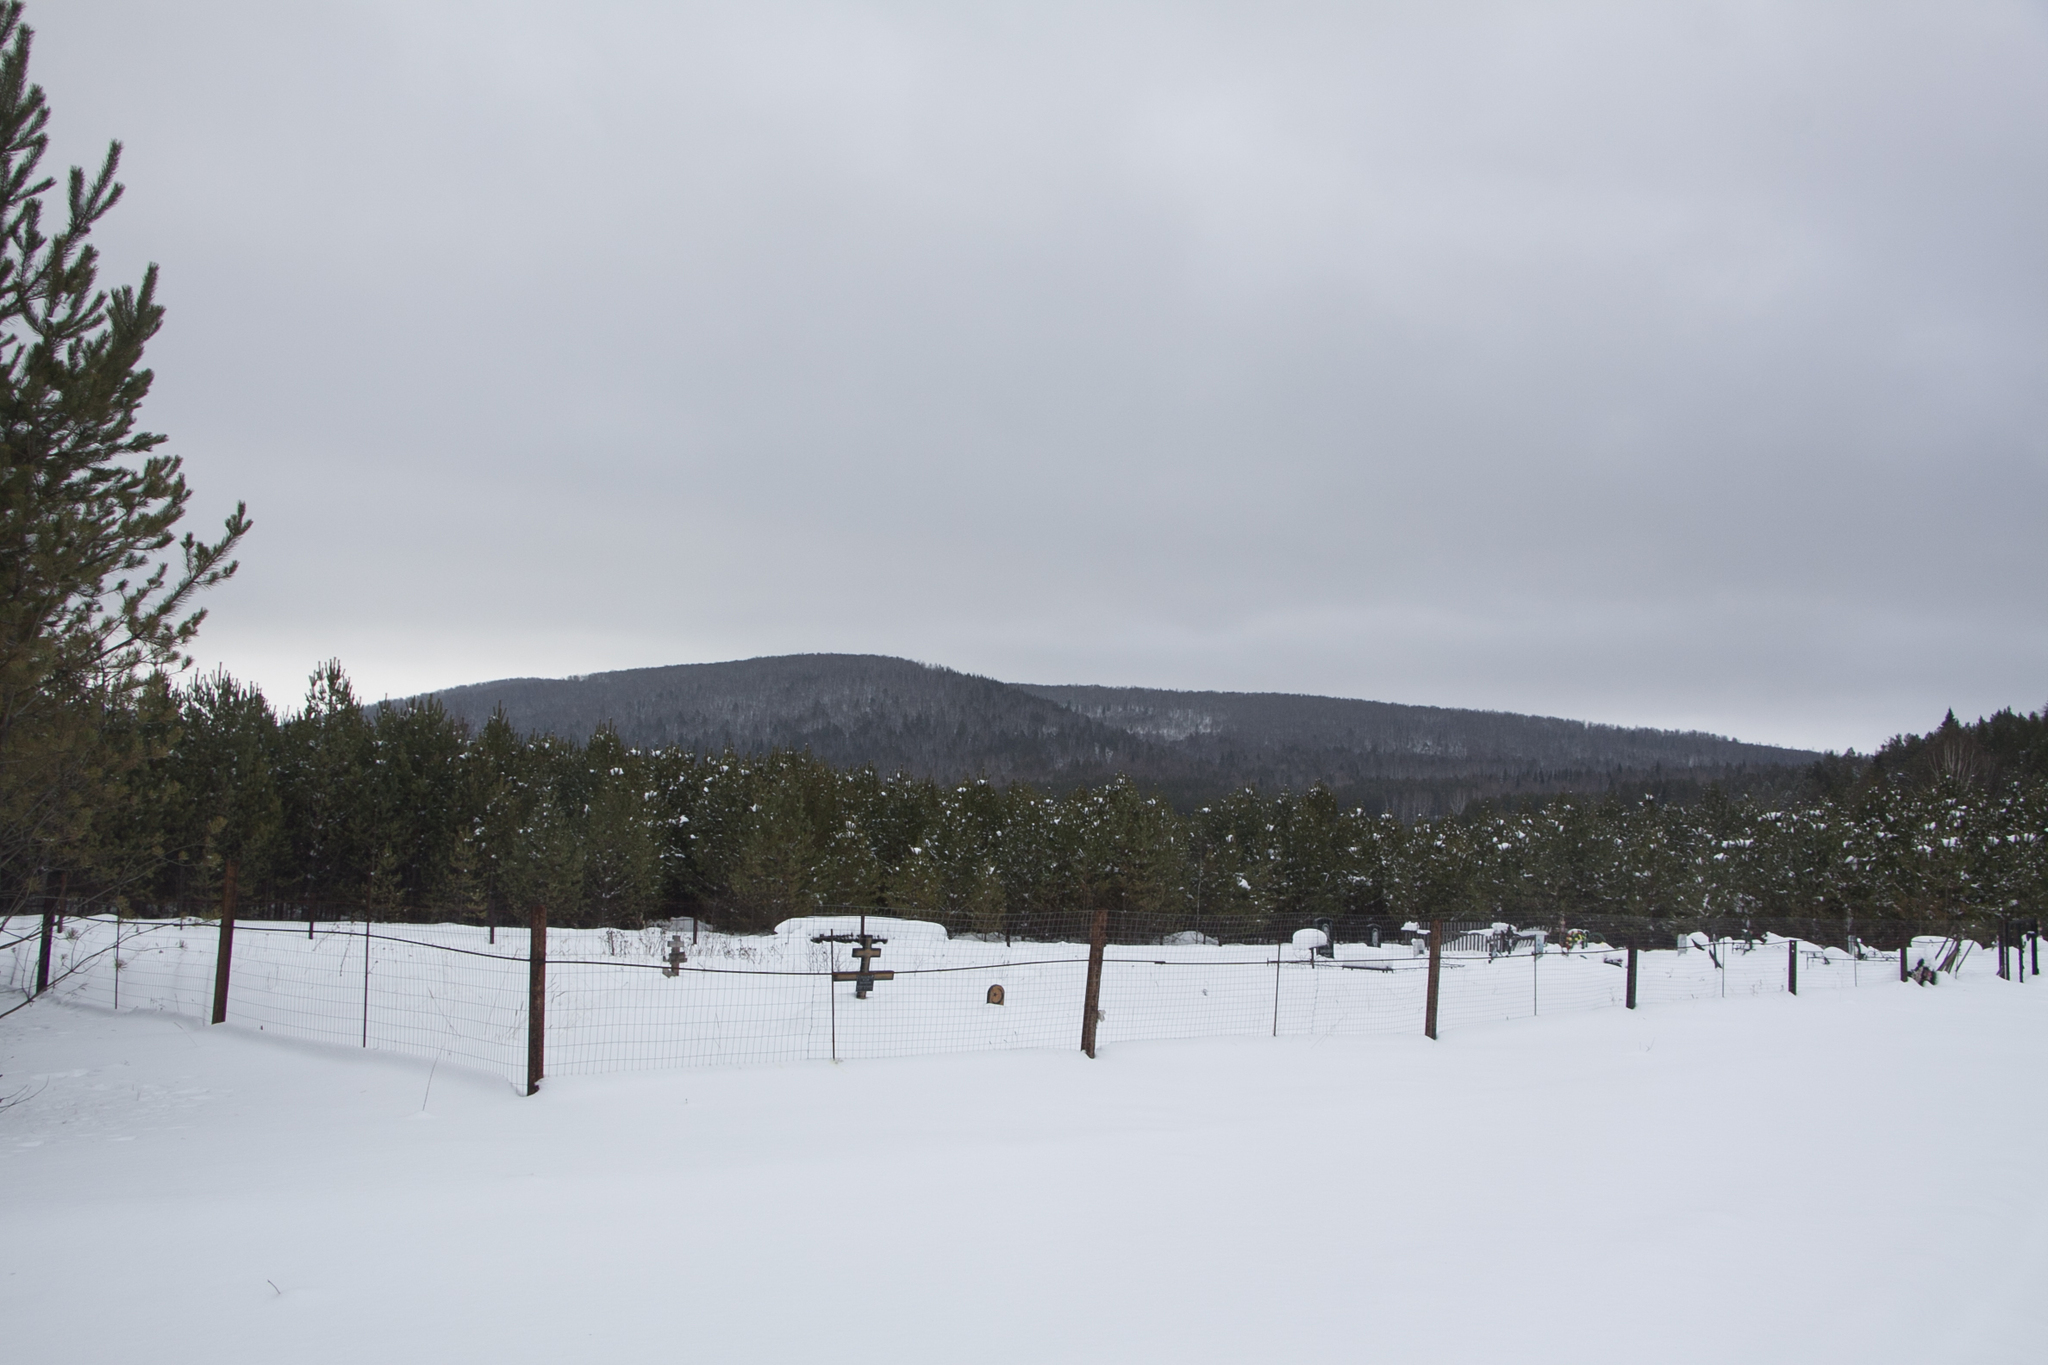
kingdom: Plantae
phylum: Tracheophyta
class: Pinopsida
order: Pinales
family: Pinaceae
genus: Pinus
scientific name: Pinus sylvestris
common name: Scots pine
